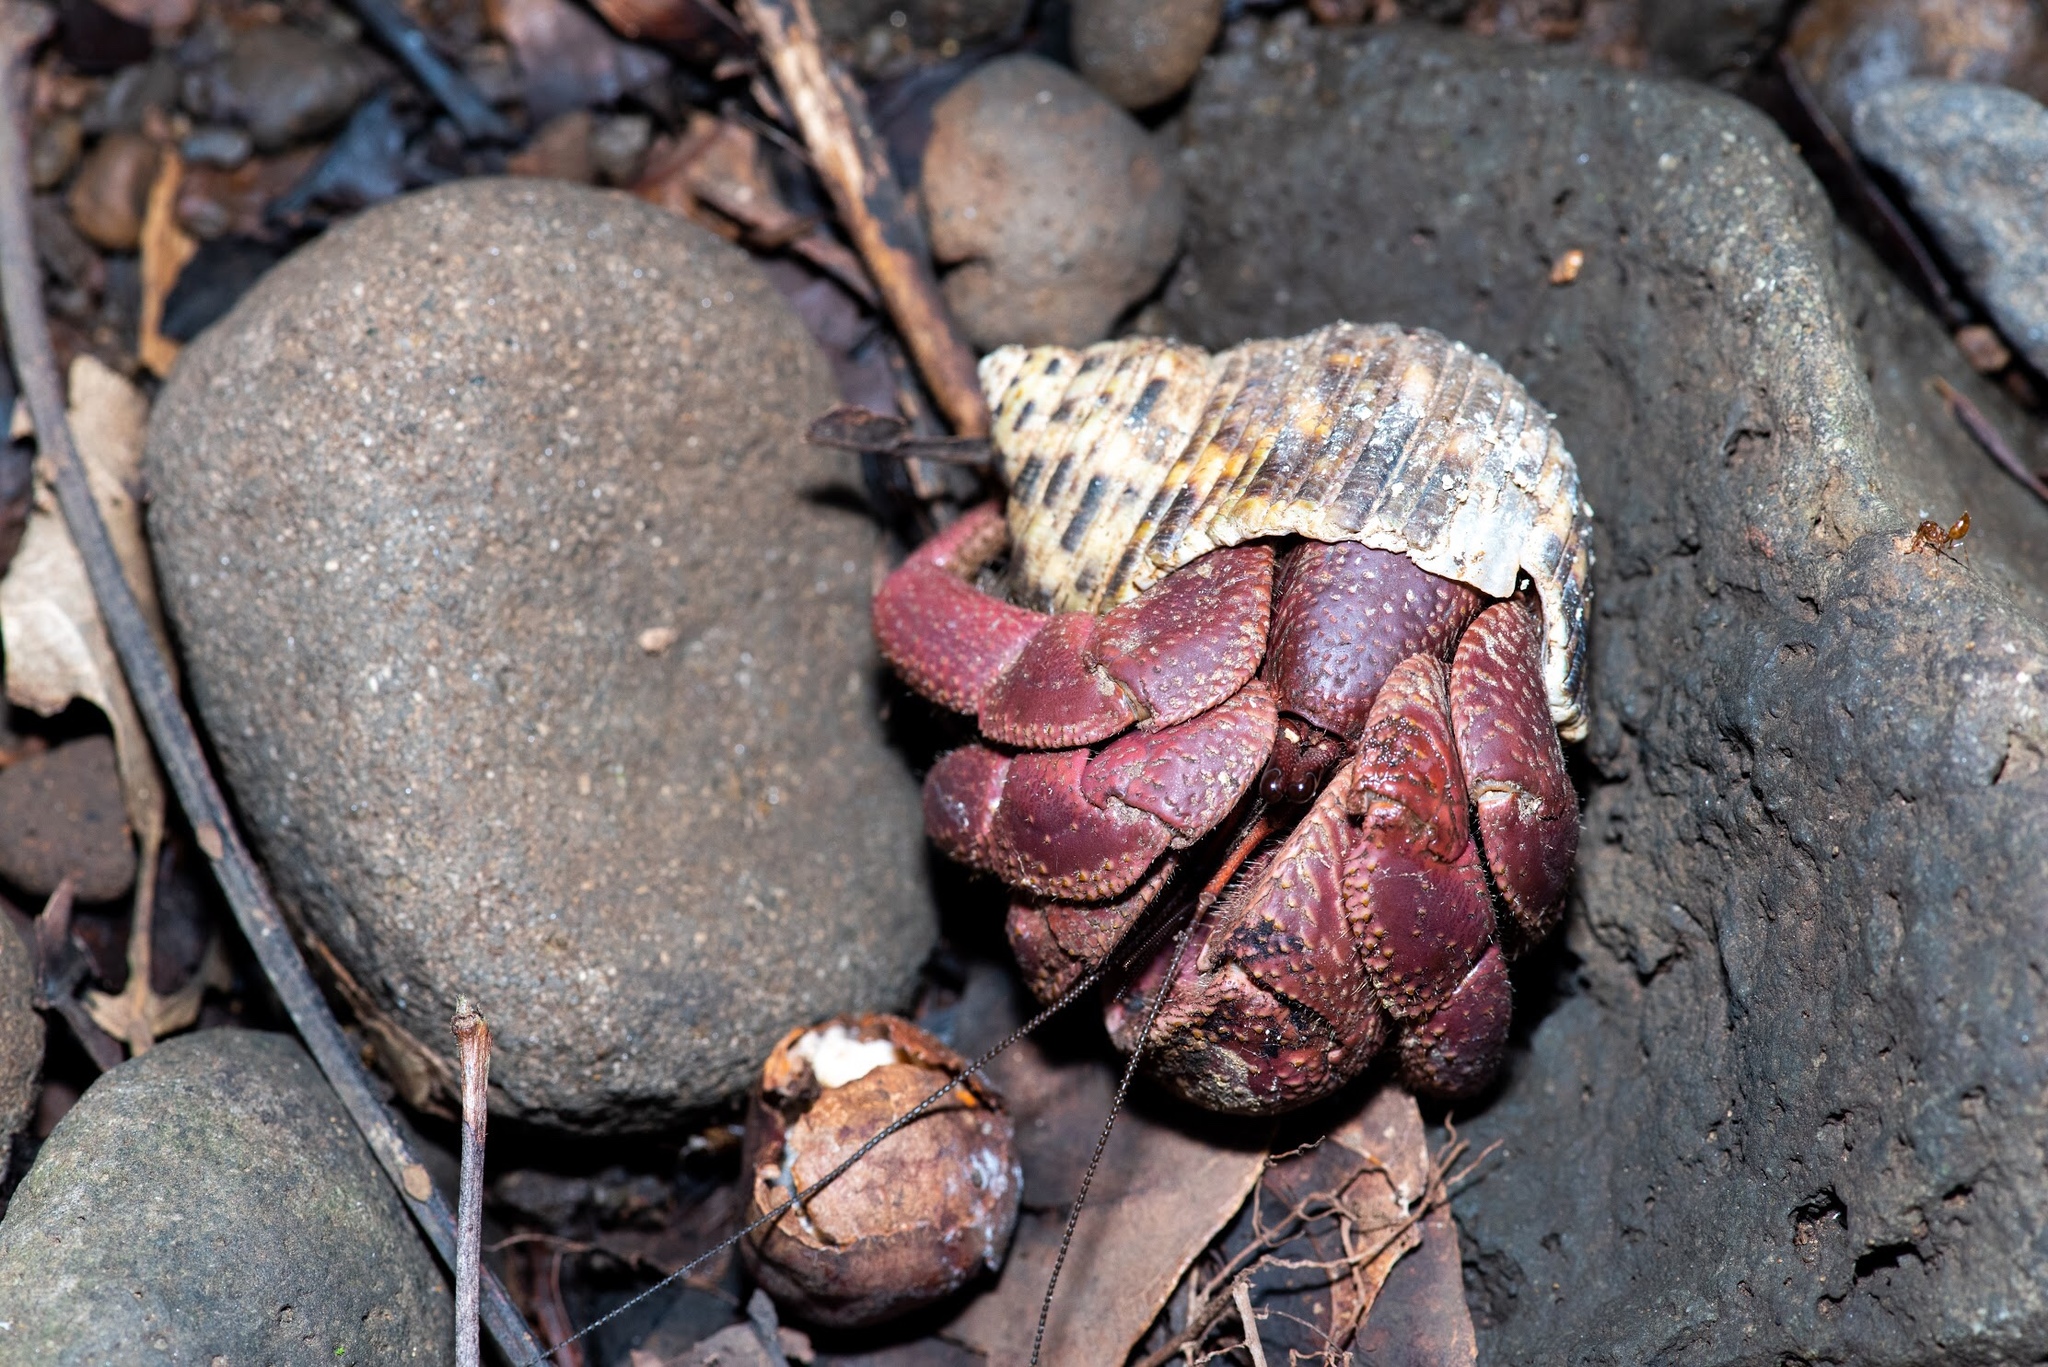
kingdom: Animalia
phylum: Arthropoda
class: Malacostraca
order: Decapoda
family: Coenobitidae
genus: Coenobita
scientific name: Coenobita brevimanus
